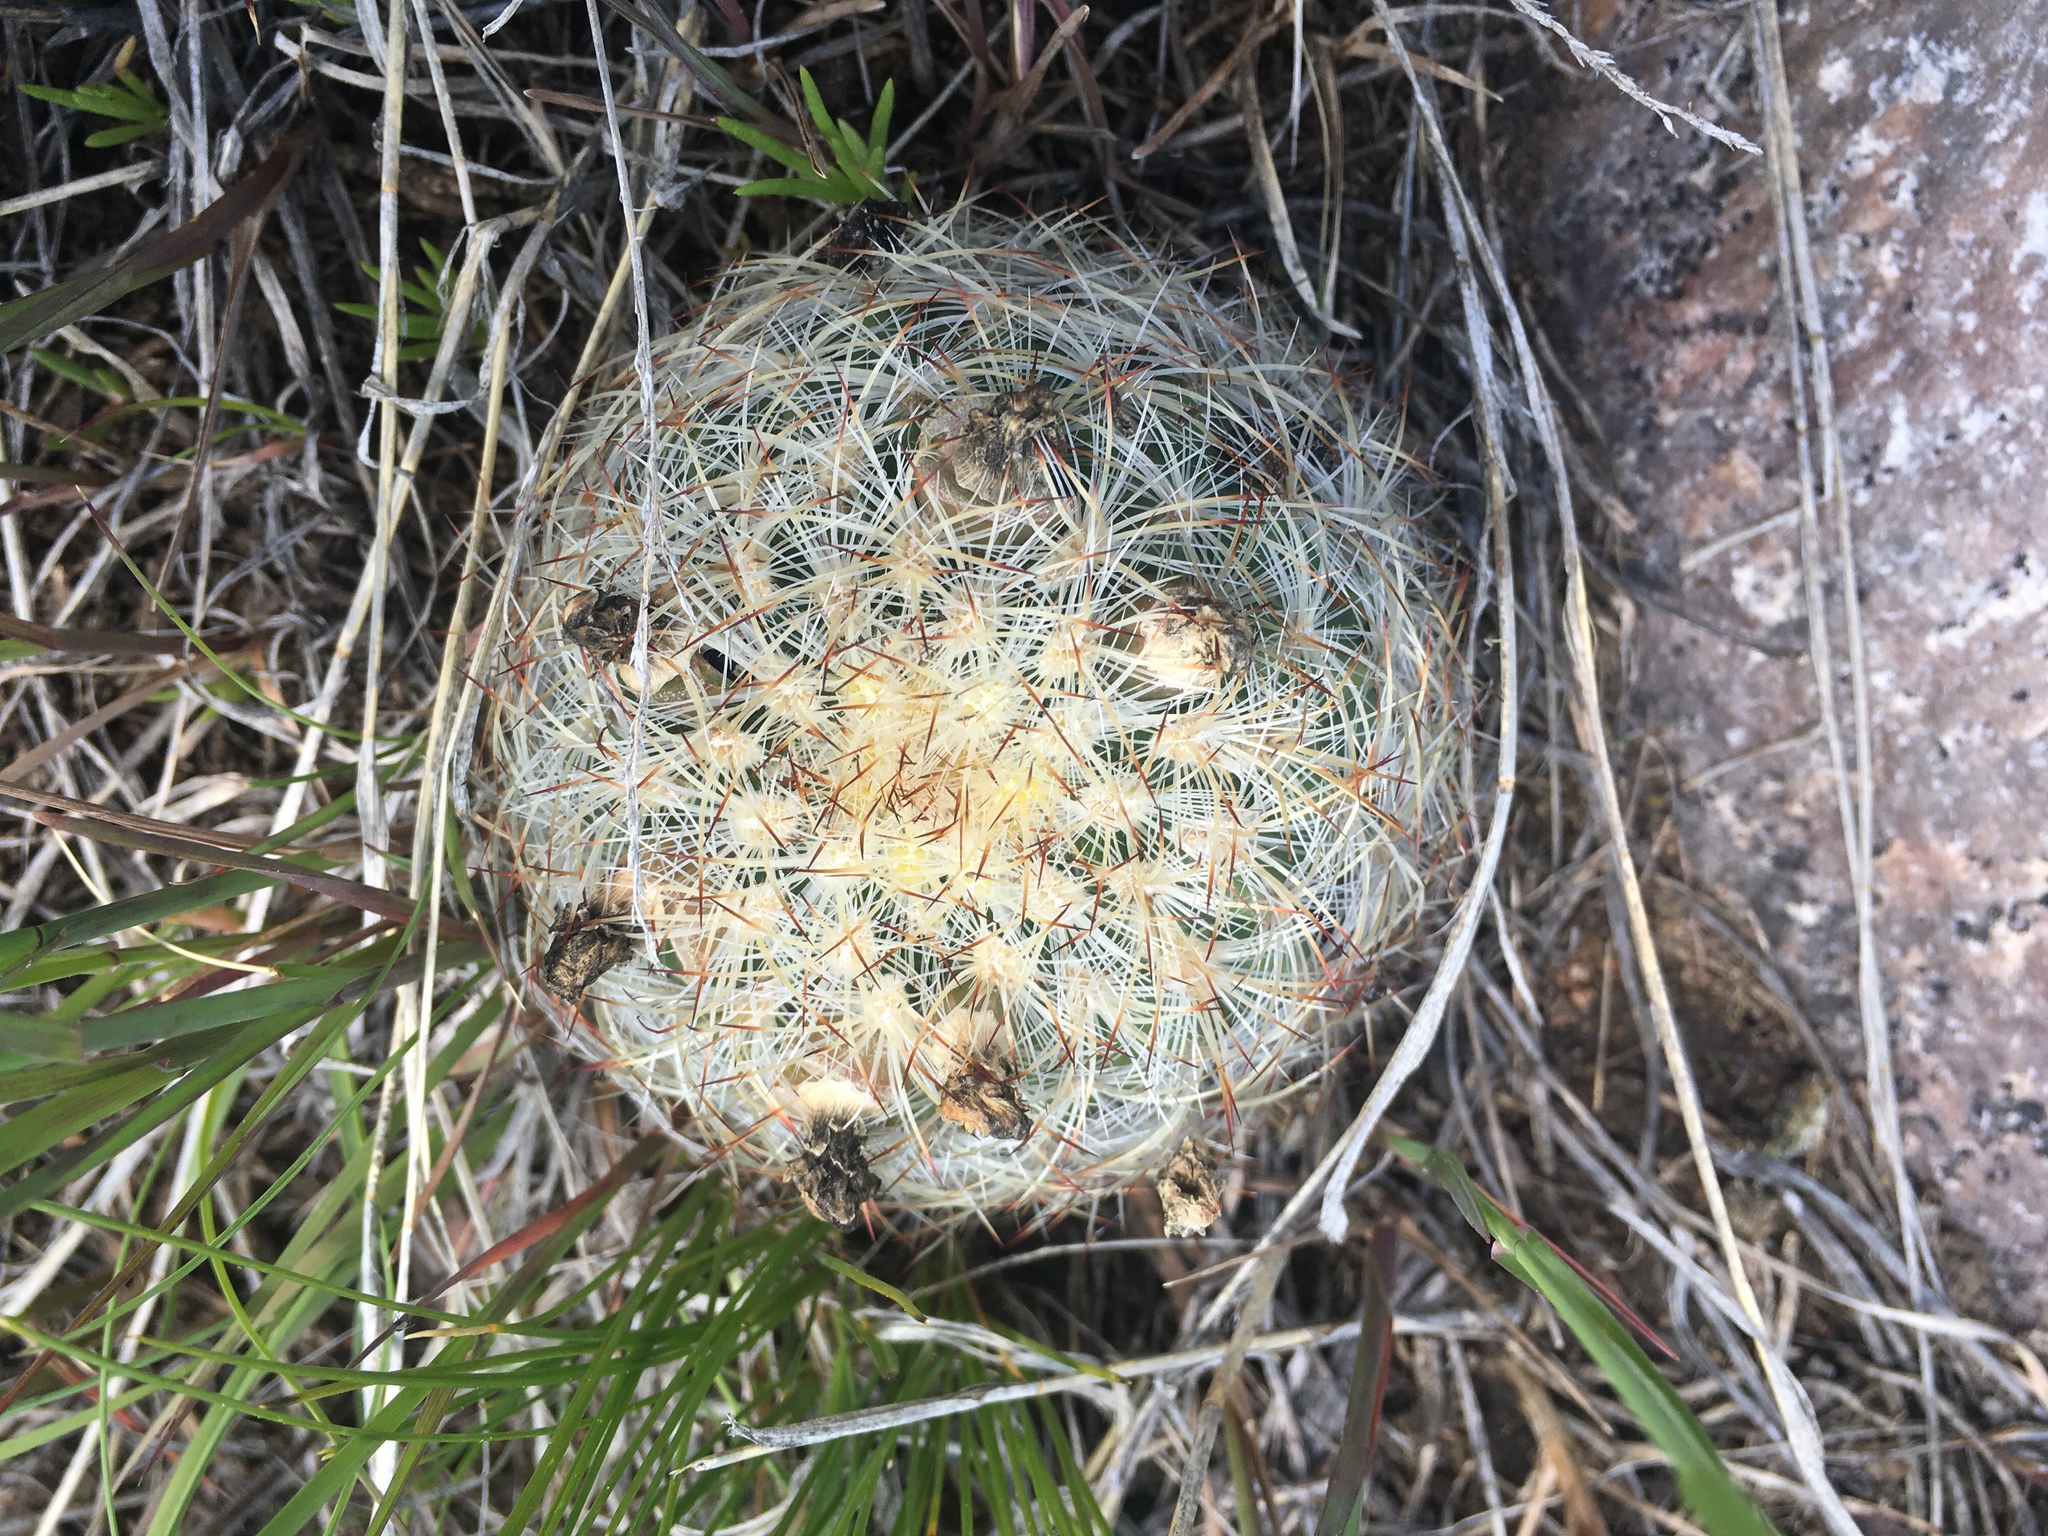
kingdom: Plantae
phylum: Tracheophyta
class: Magnoliopsida
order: Caryophyllales
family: Cactaceae
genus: Pediocactus
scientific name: Pediocactus simpsonii
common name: Simpson's hedgehog cactus
